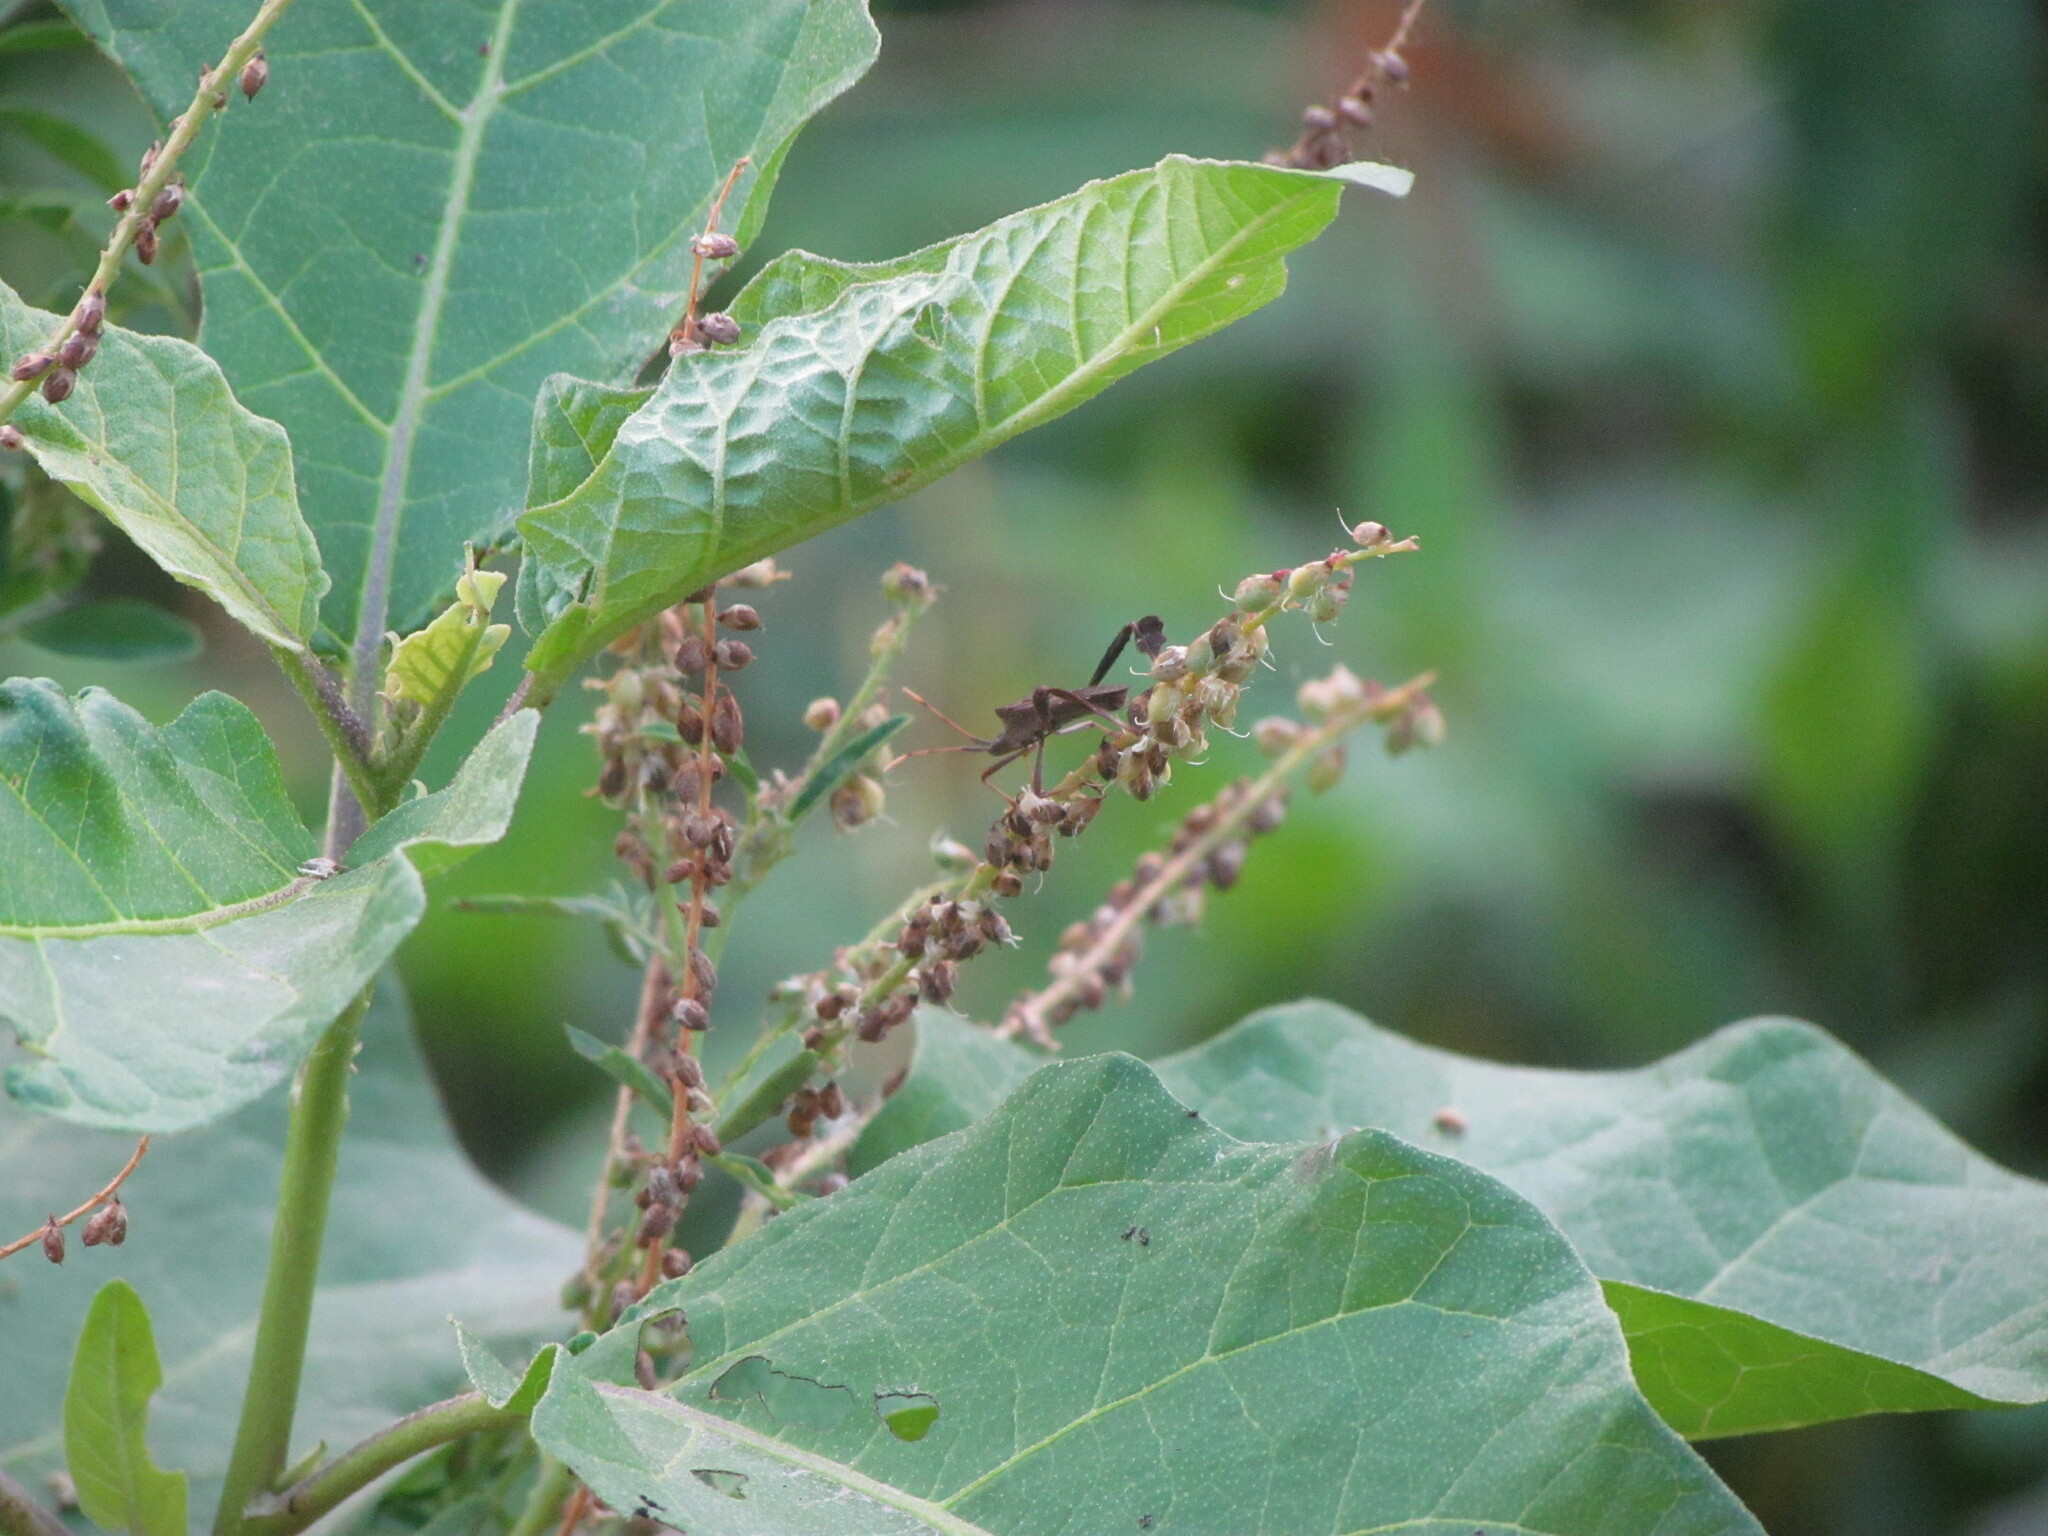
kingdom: Animalia
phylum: Arthropoda
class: Insecta
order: Hemiptera
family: Coreidae
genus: Leptoglossus
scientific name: Leptoglossus concaviusculus
